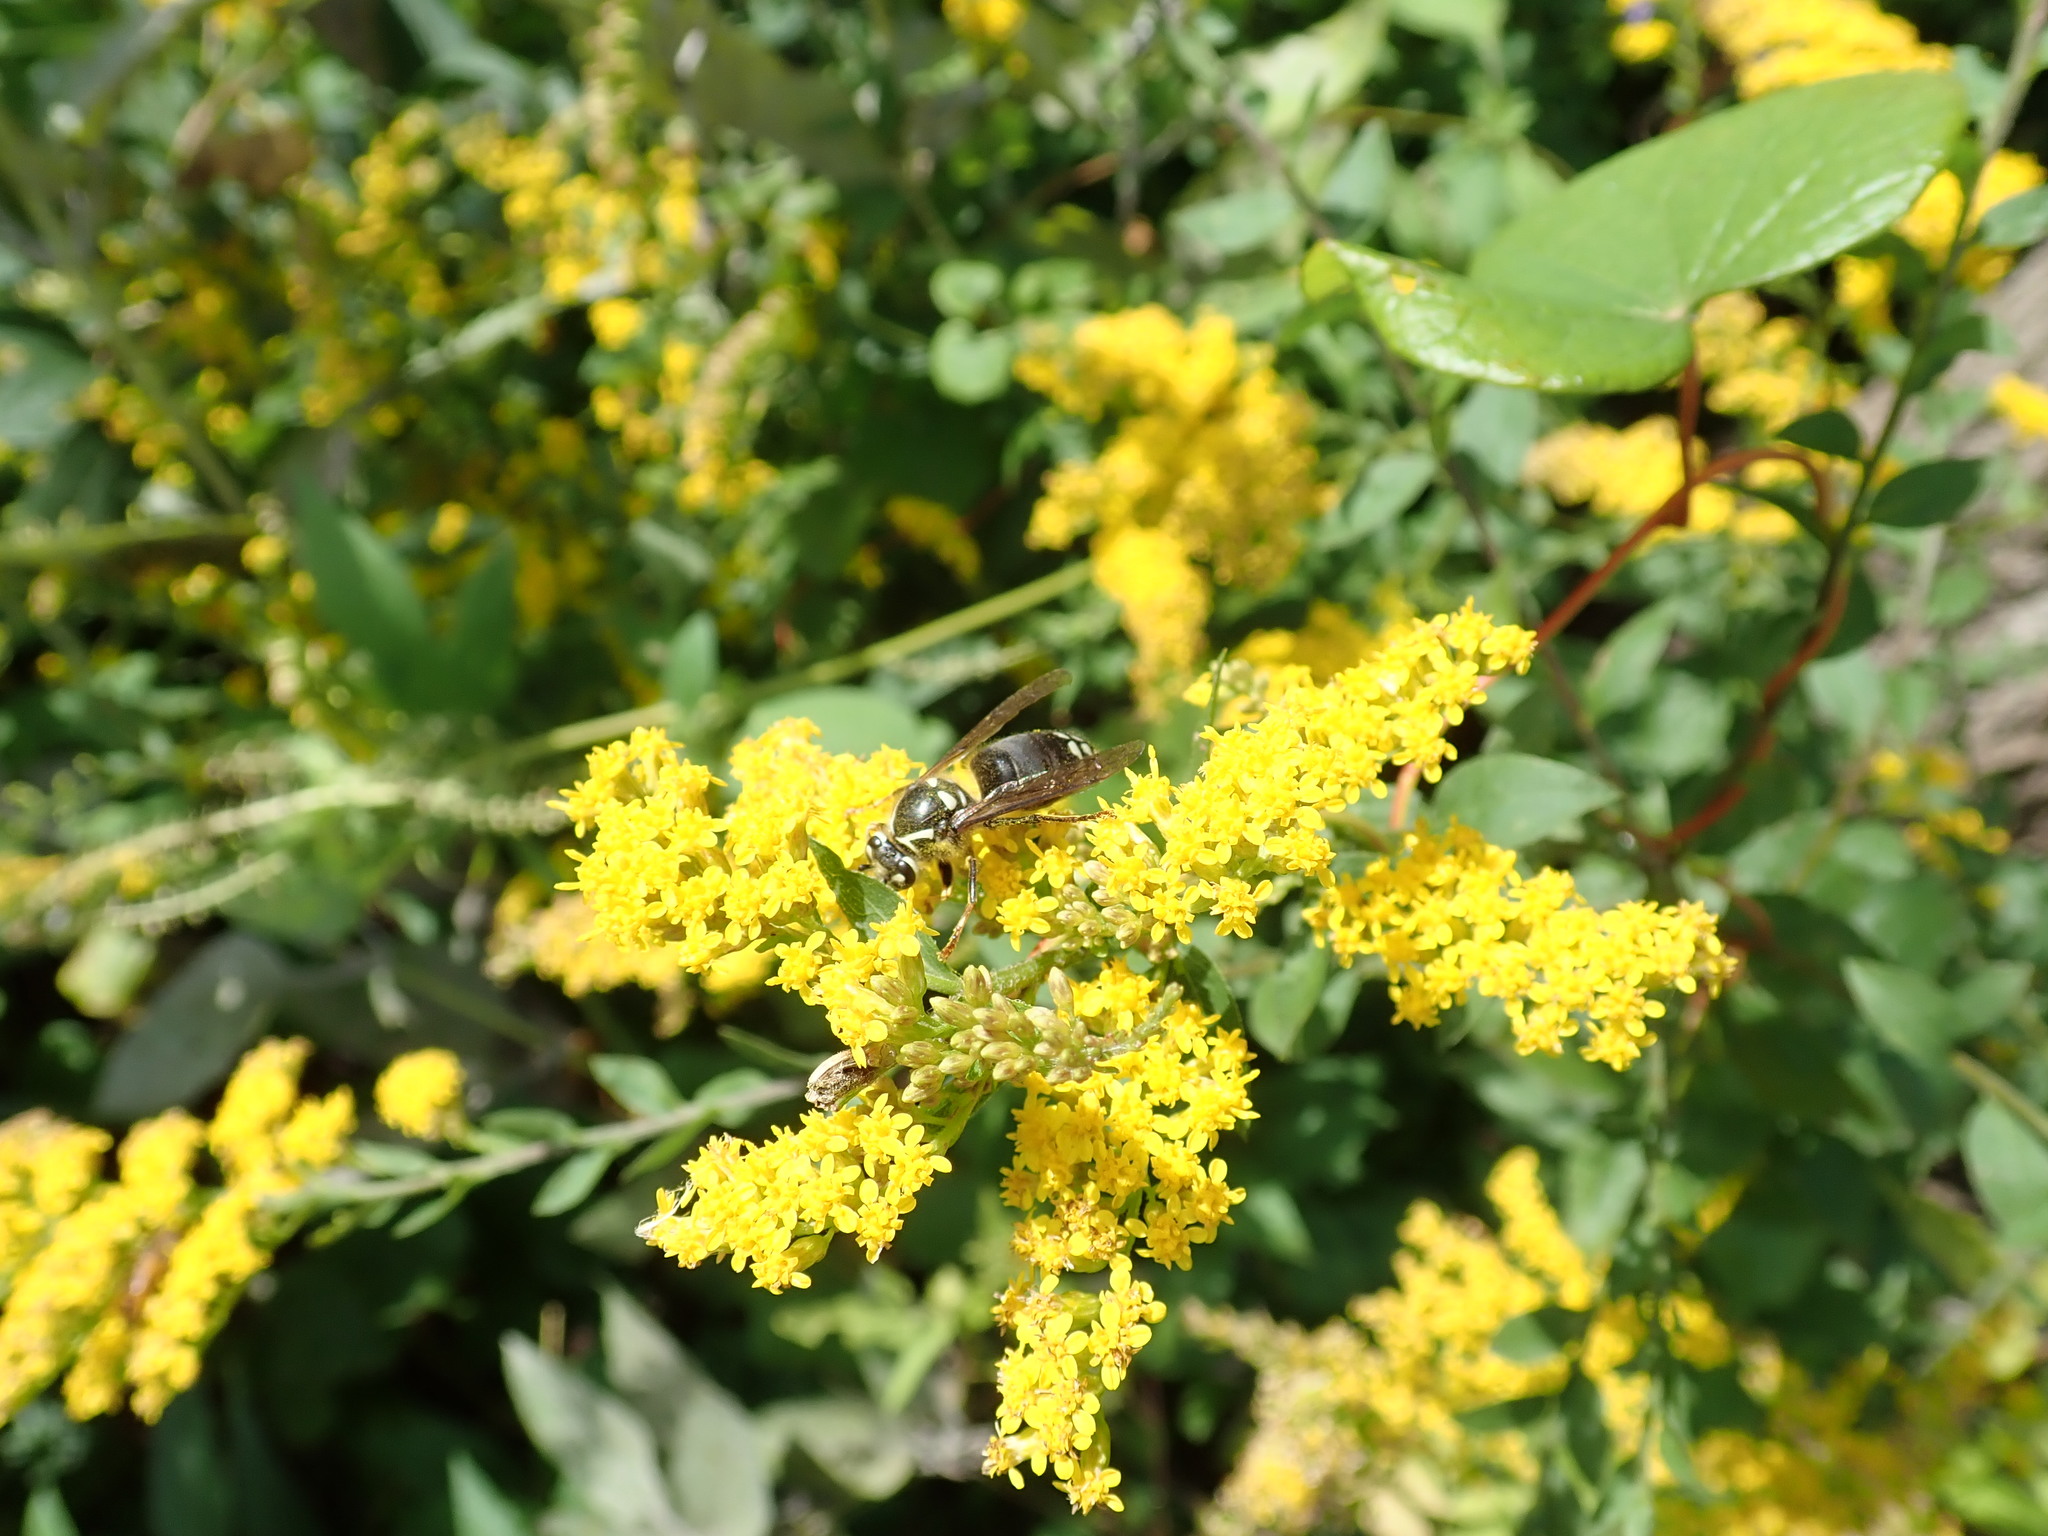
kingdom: Animalia
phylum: Arthropoda
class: Insecta
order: Hymenoptera
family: Vespidae
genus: Dolichovespula
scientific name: Dolichovespula maculata
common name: Bald-faced hornet
